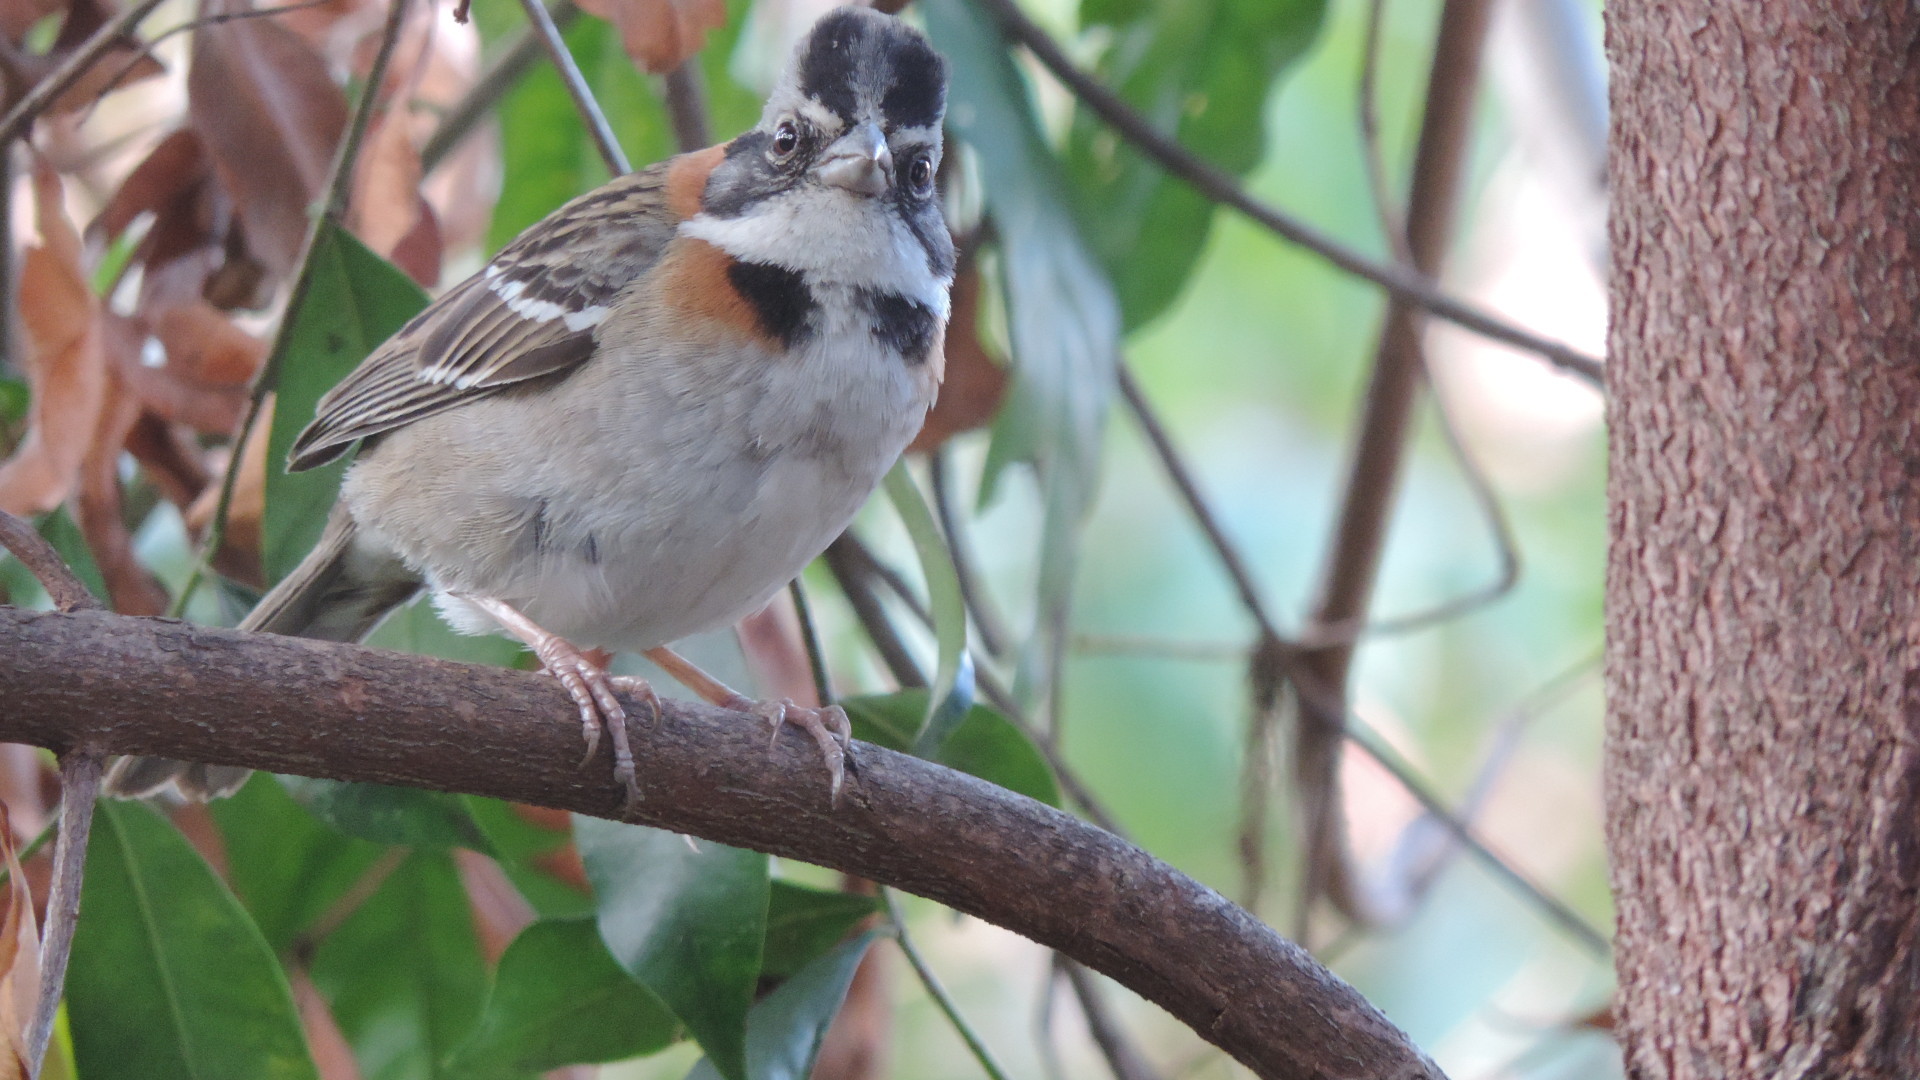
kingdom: Animalia
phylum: Chordata
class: Aves
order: Passeriformes
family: Passerellidae
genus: Zonotrichia
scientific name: Zonotrichia capensis
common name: Rufous-collared sparrow
